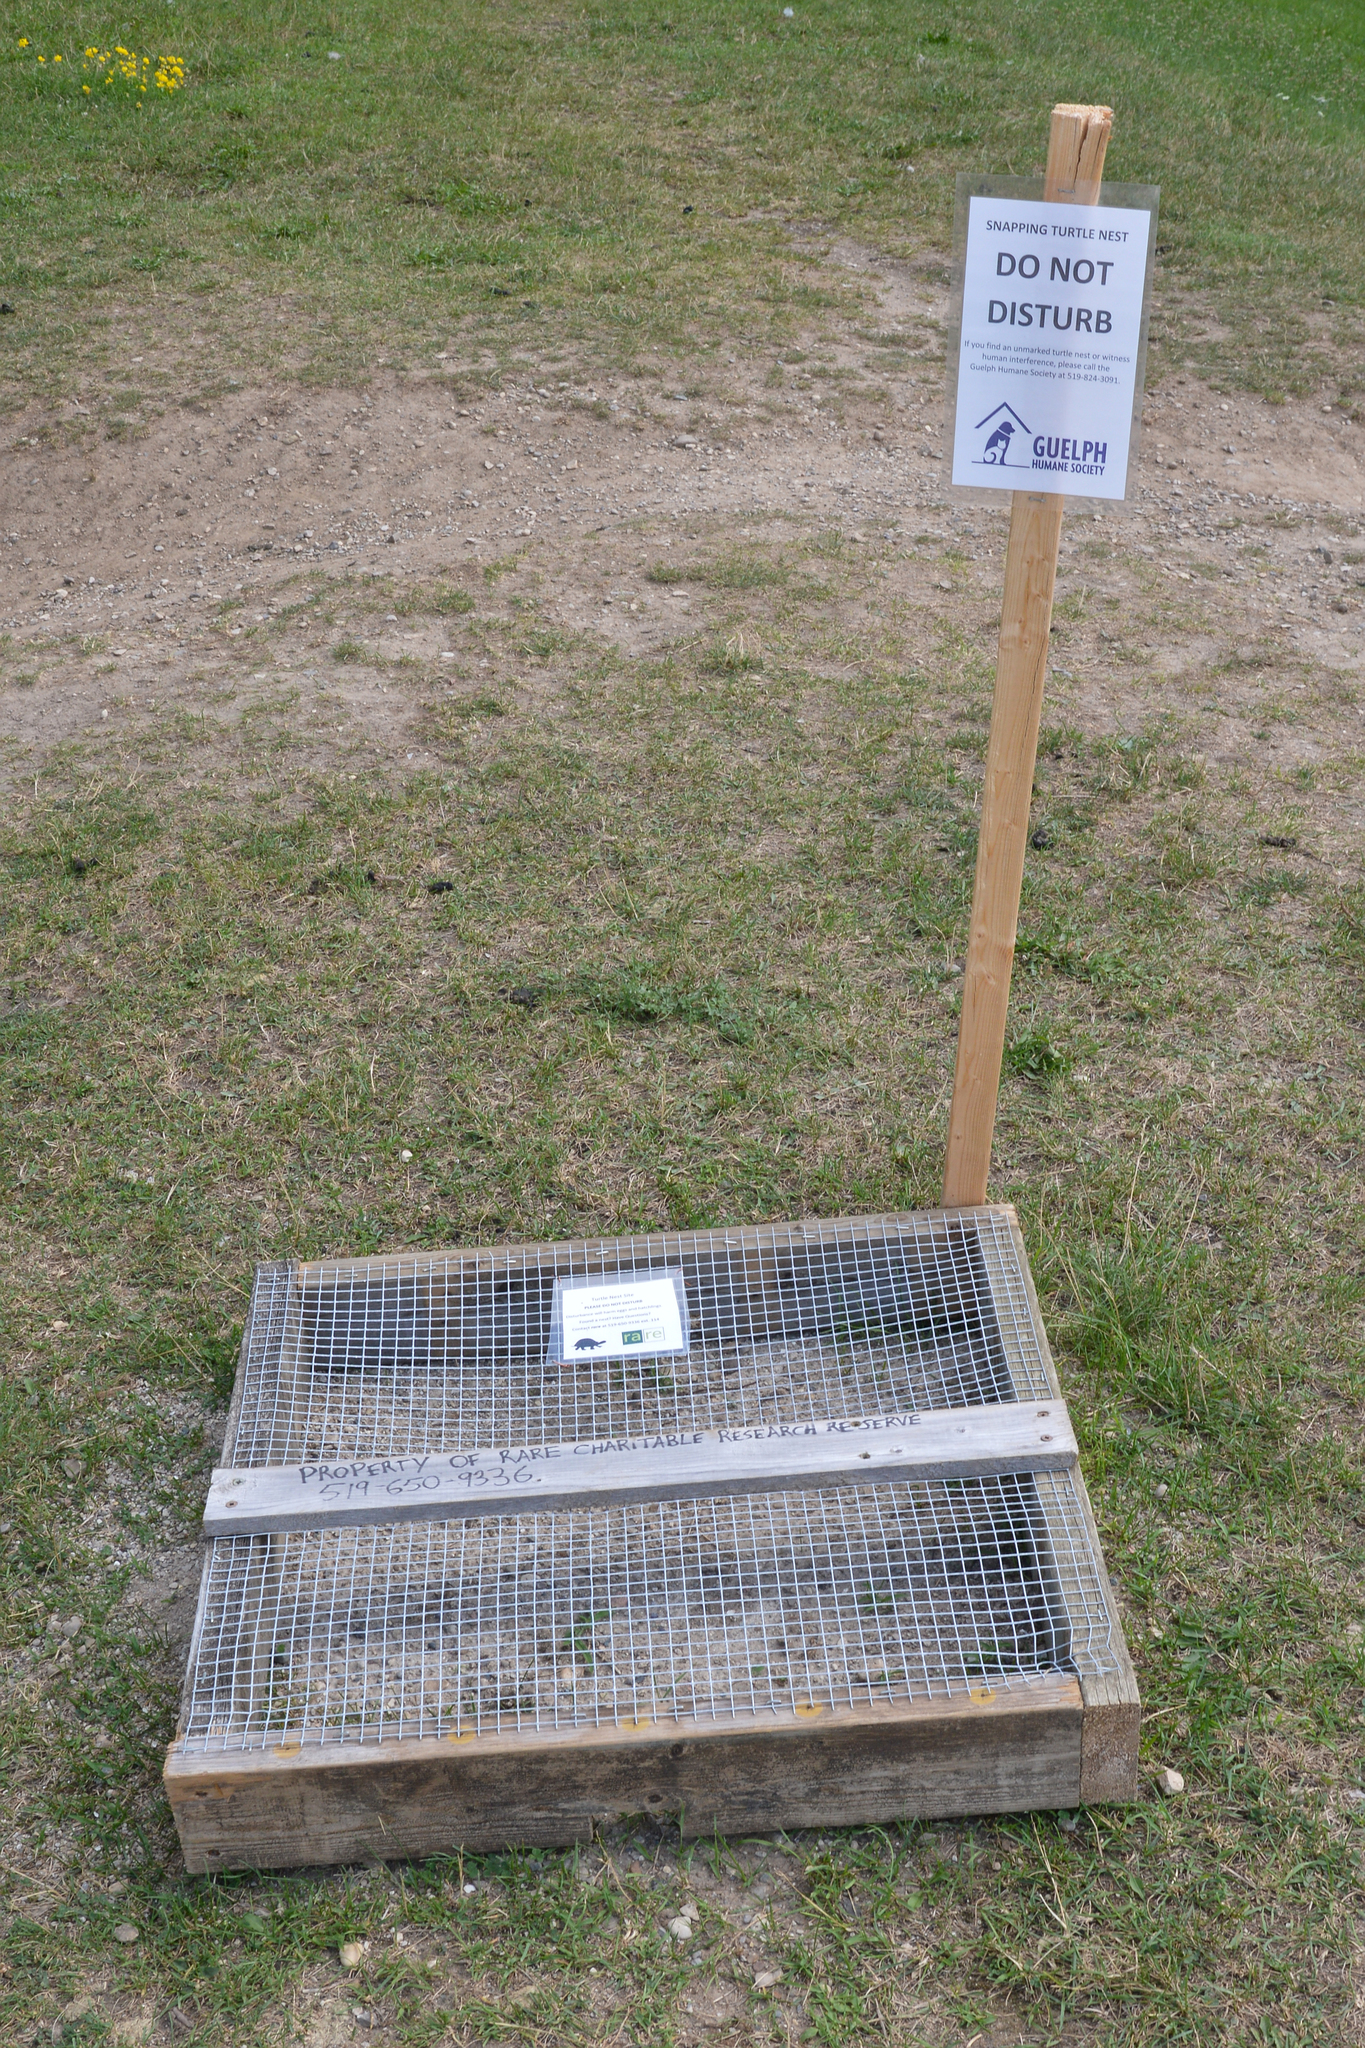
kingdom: Animalia
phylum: Chordata
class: Testudines
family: Chelydridae
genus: Chelydra
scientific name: Chelydra serpentina
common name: Common snapping turtle
